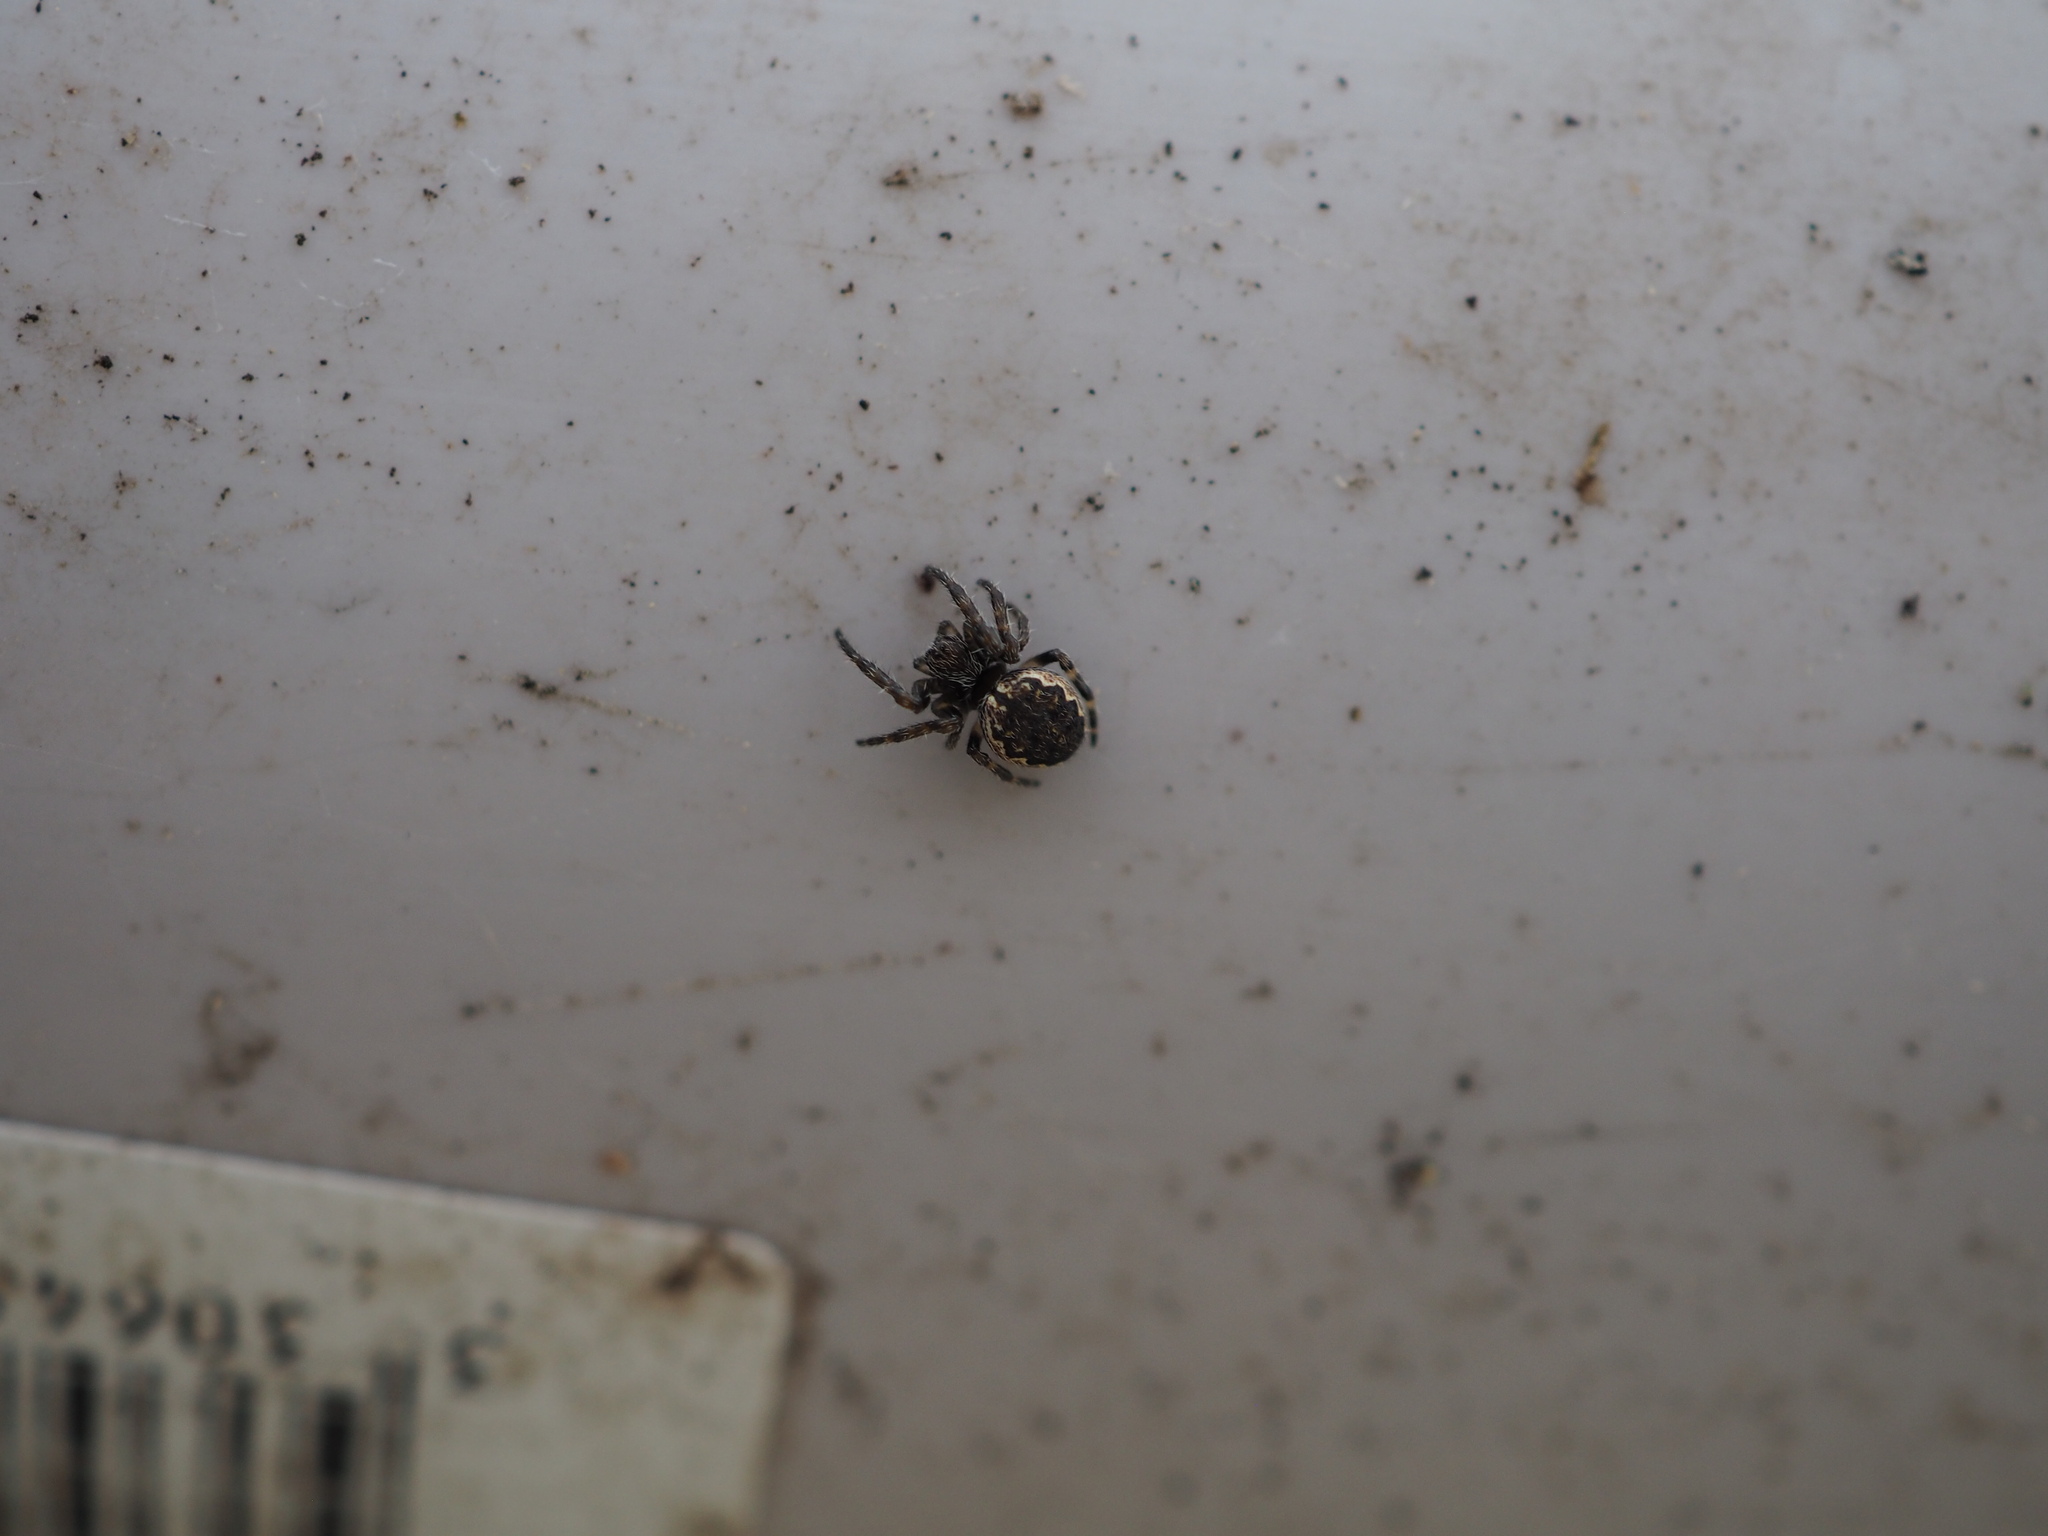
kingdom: Animalia
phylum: Arthropoda
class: Arachnida
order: Araneae
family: Araneidae
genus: Nuctenea
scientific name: Nuctenea umbratica
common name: Toad spider
